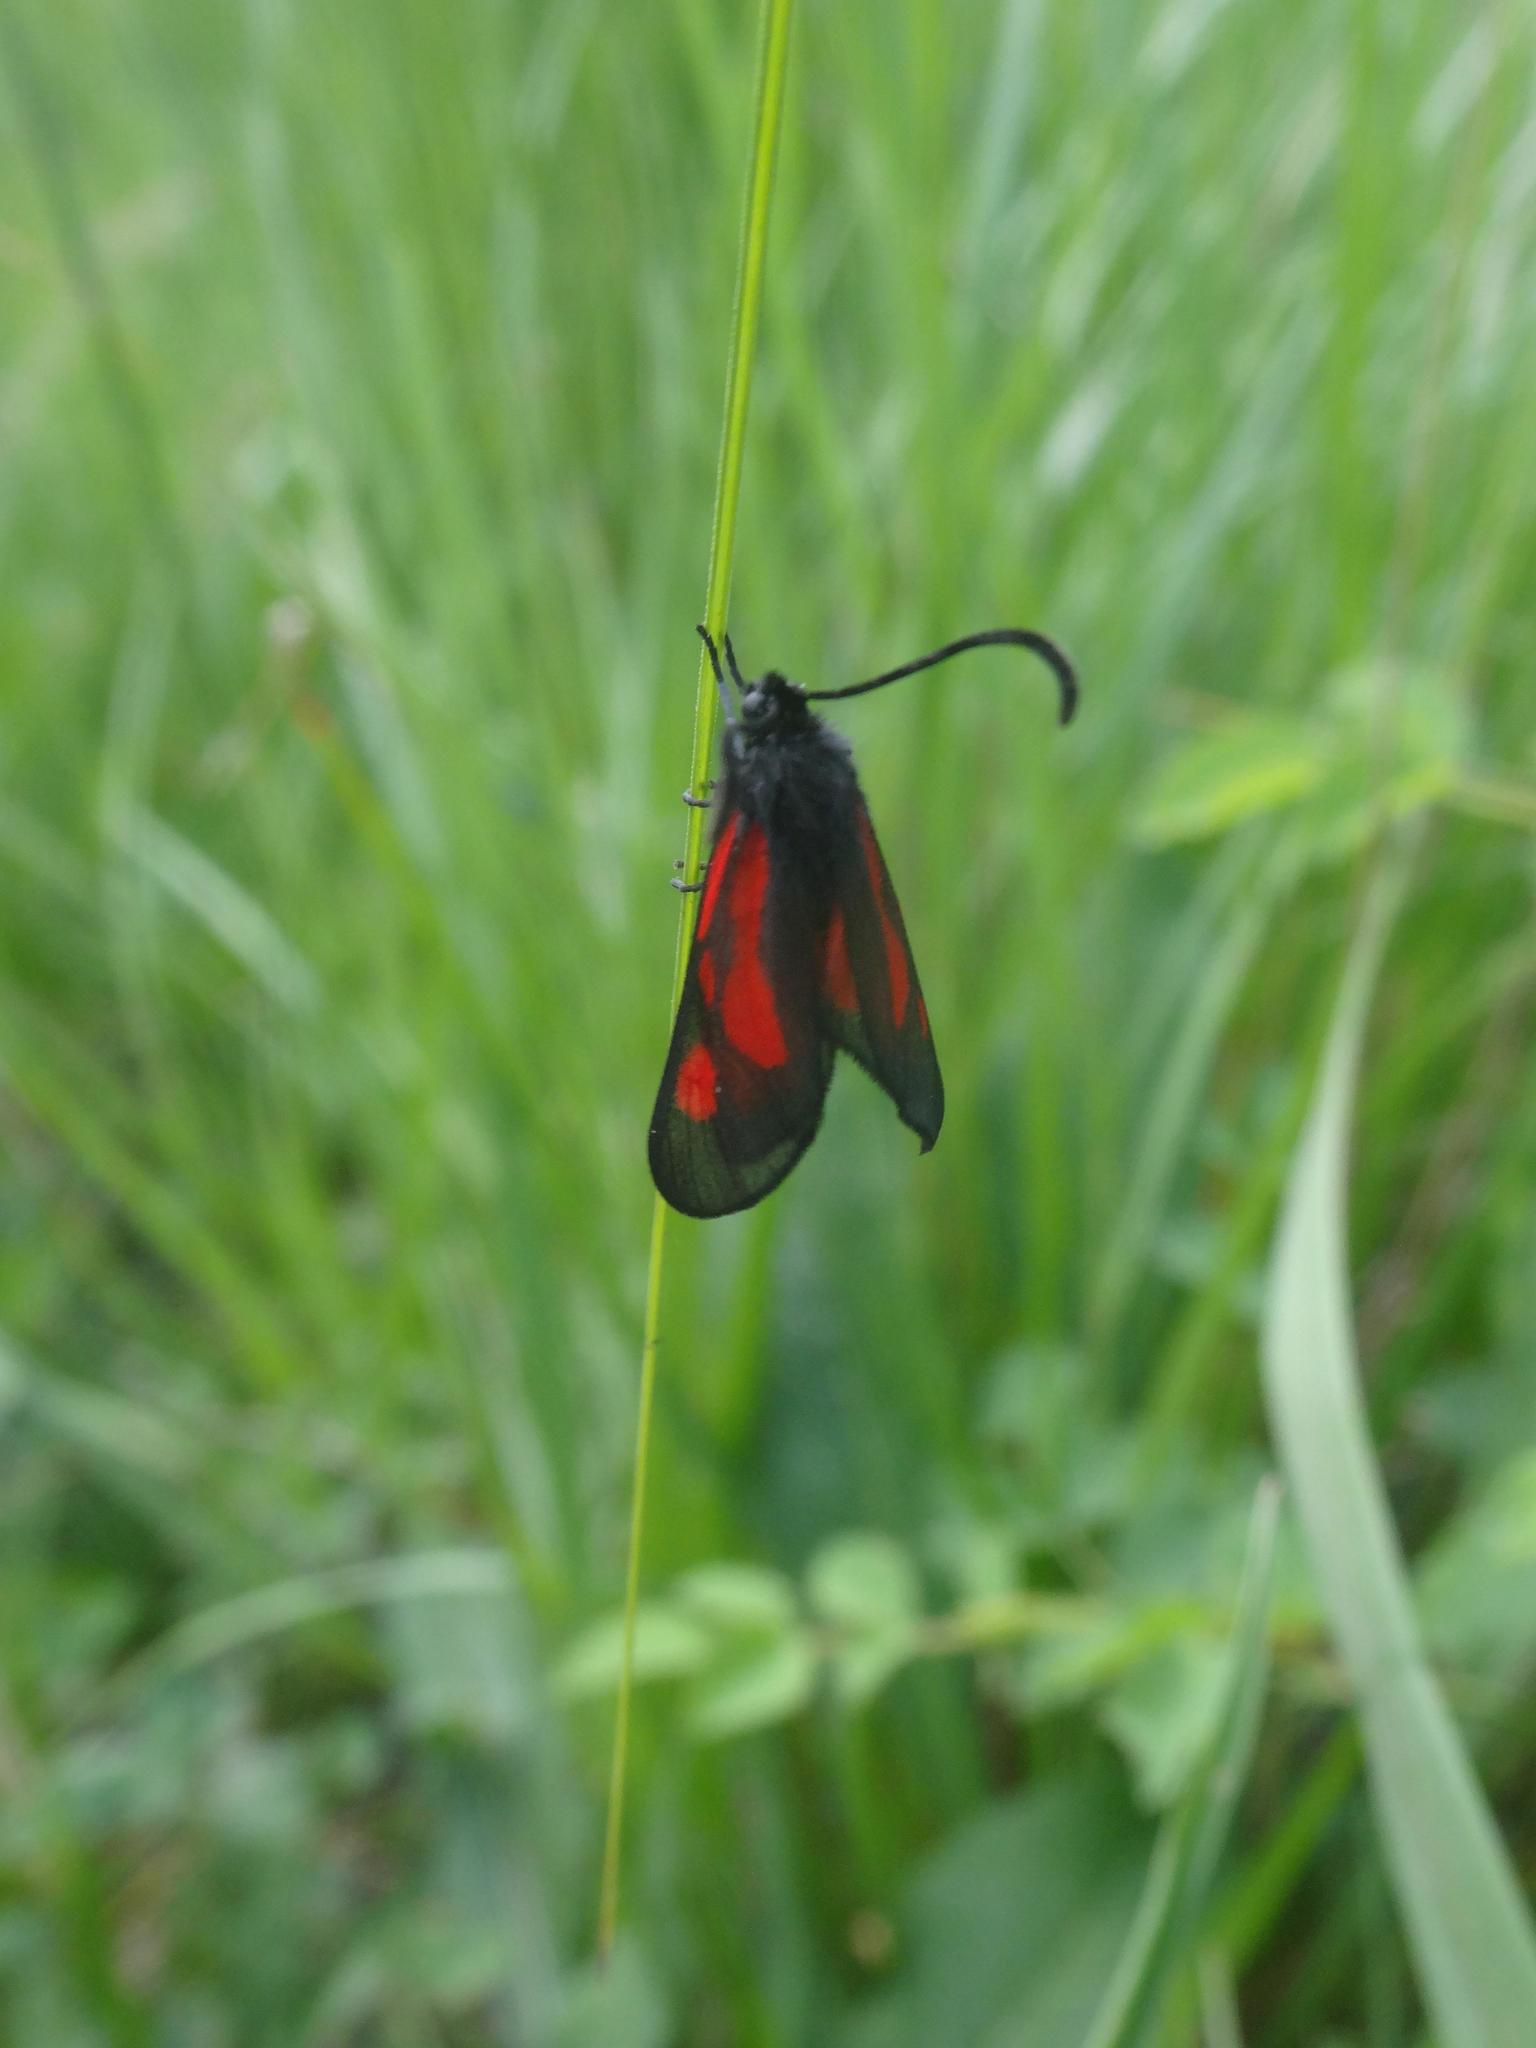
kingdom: Animalia
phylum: Arthropoda
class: Insecta
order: Lepidoptera
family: Zygaenidae
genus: Zygaena
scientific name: Zygaena romeo
